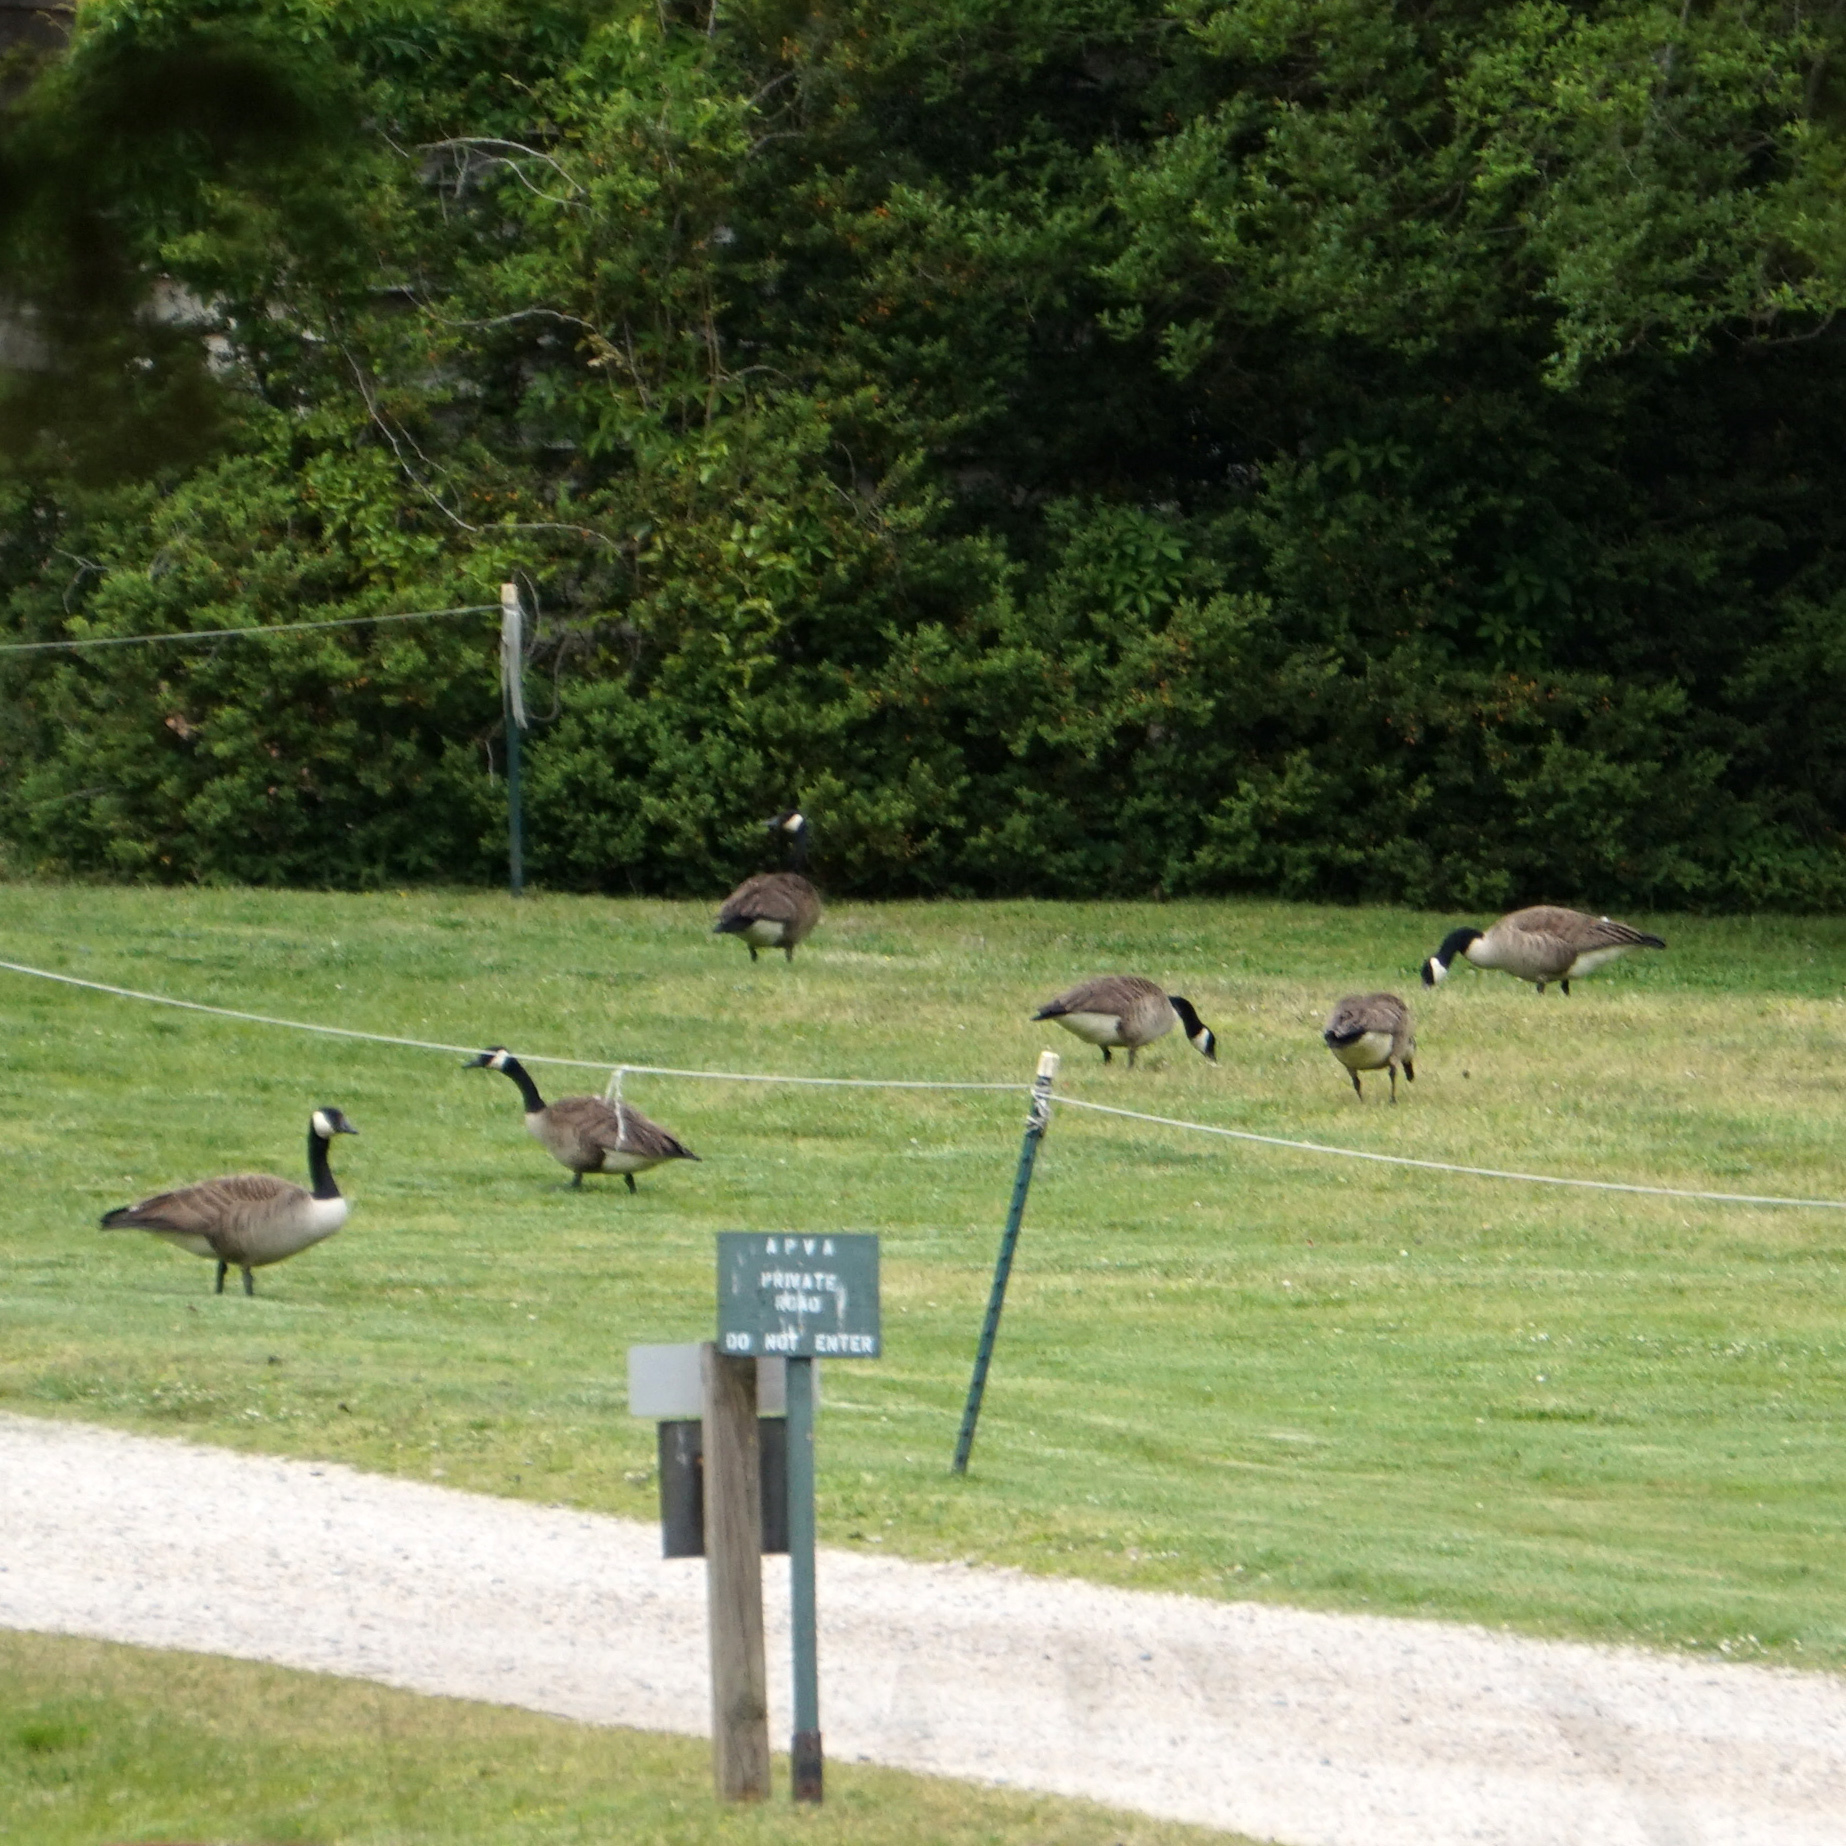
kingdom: Animalia
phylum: Chordata
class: Aves
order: Anseriformes
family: Anatidae
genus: Branta
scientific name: Branta canadensis
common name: Canada goose
